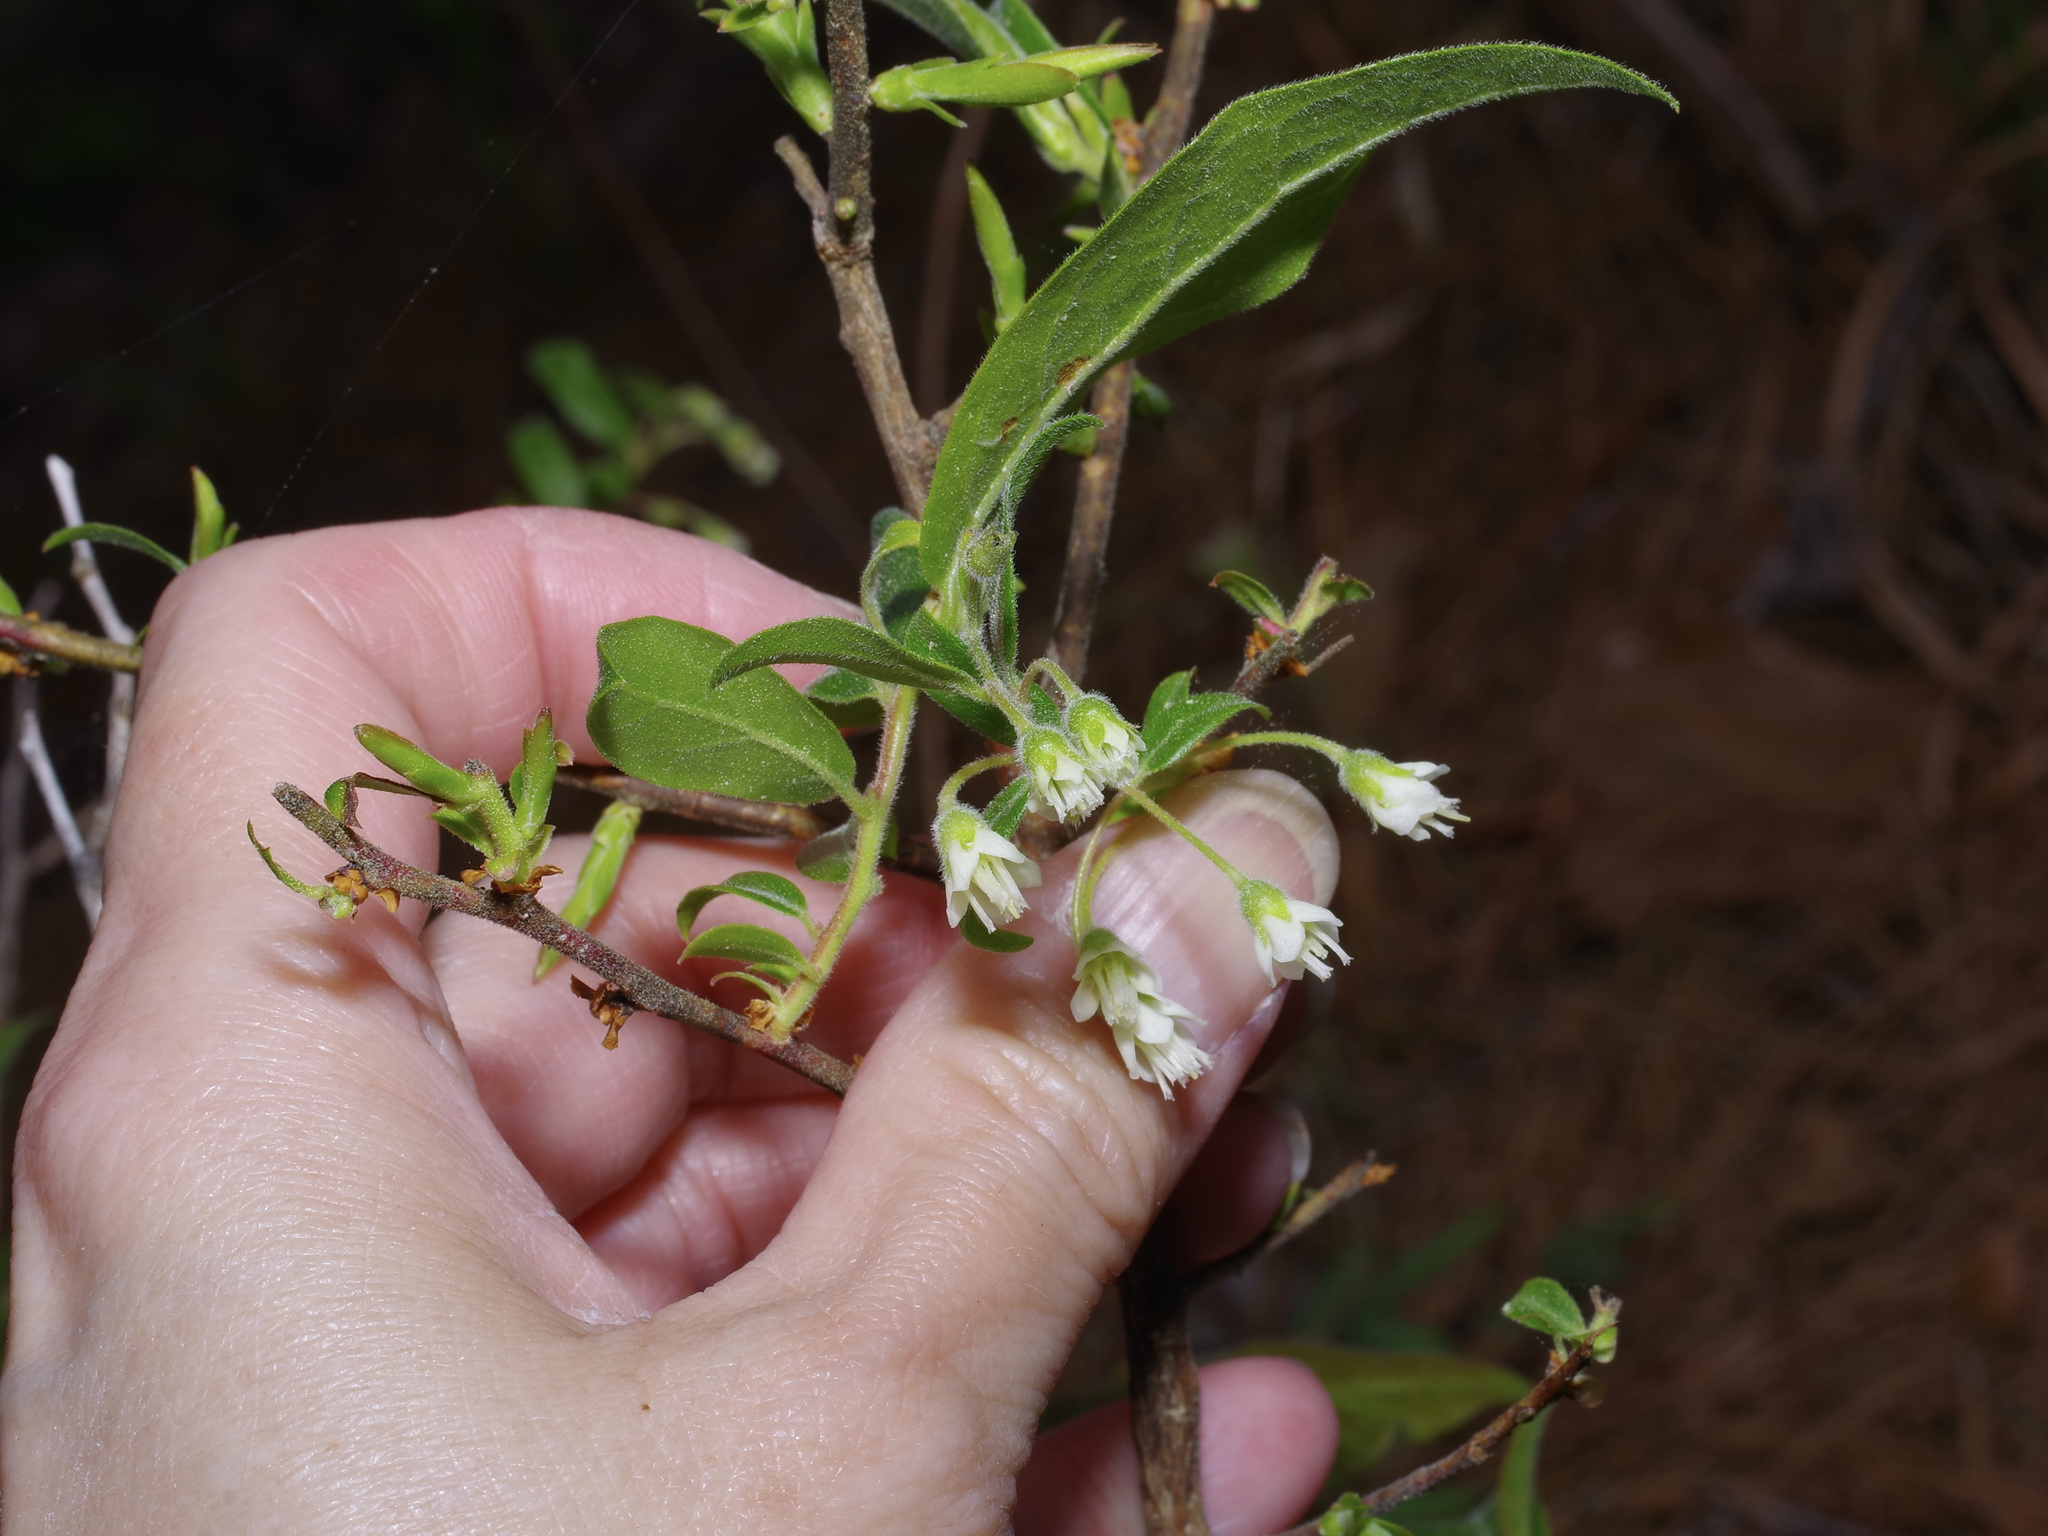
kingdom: Plantae
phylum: Tracheophyta
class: Magnoliopsida
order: Ericales
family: Ericaceae
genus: Vaccinium
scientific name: Vaccinium stamineum
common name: Deerberry
